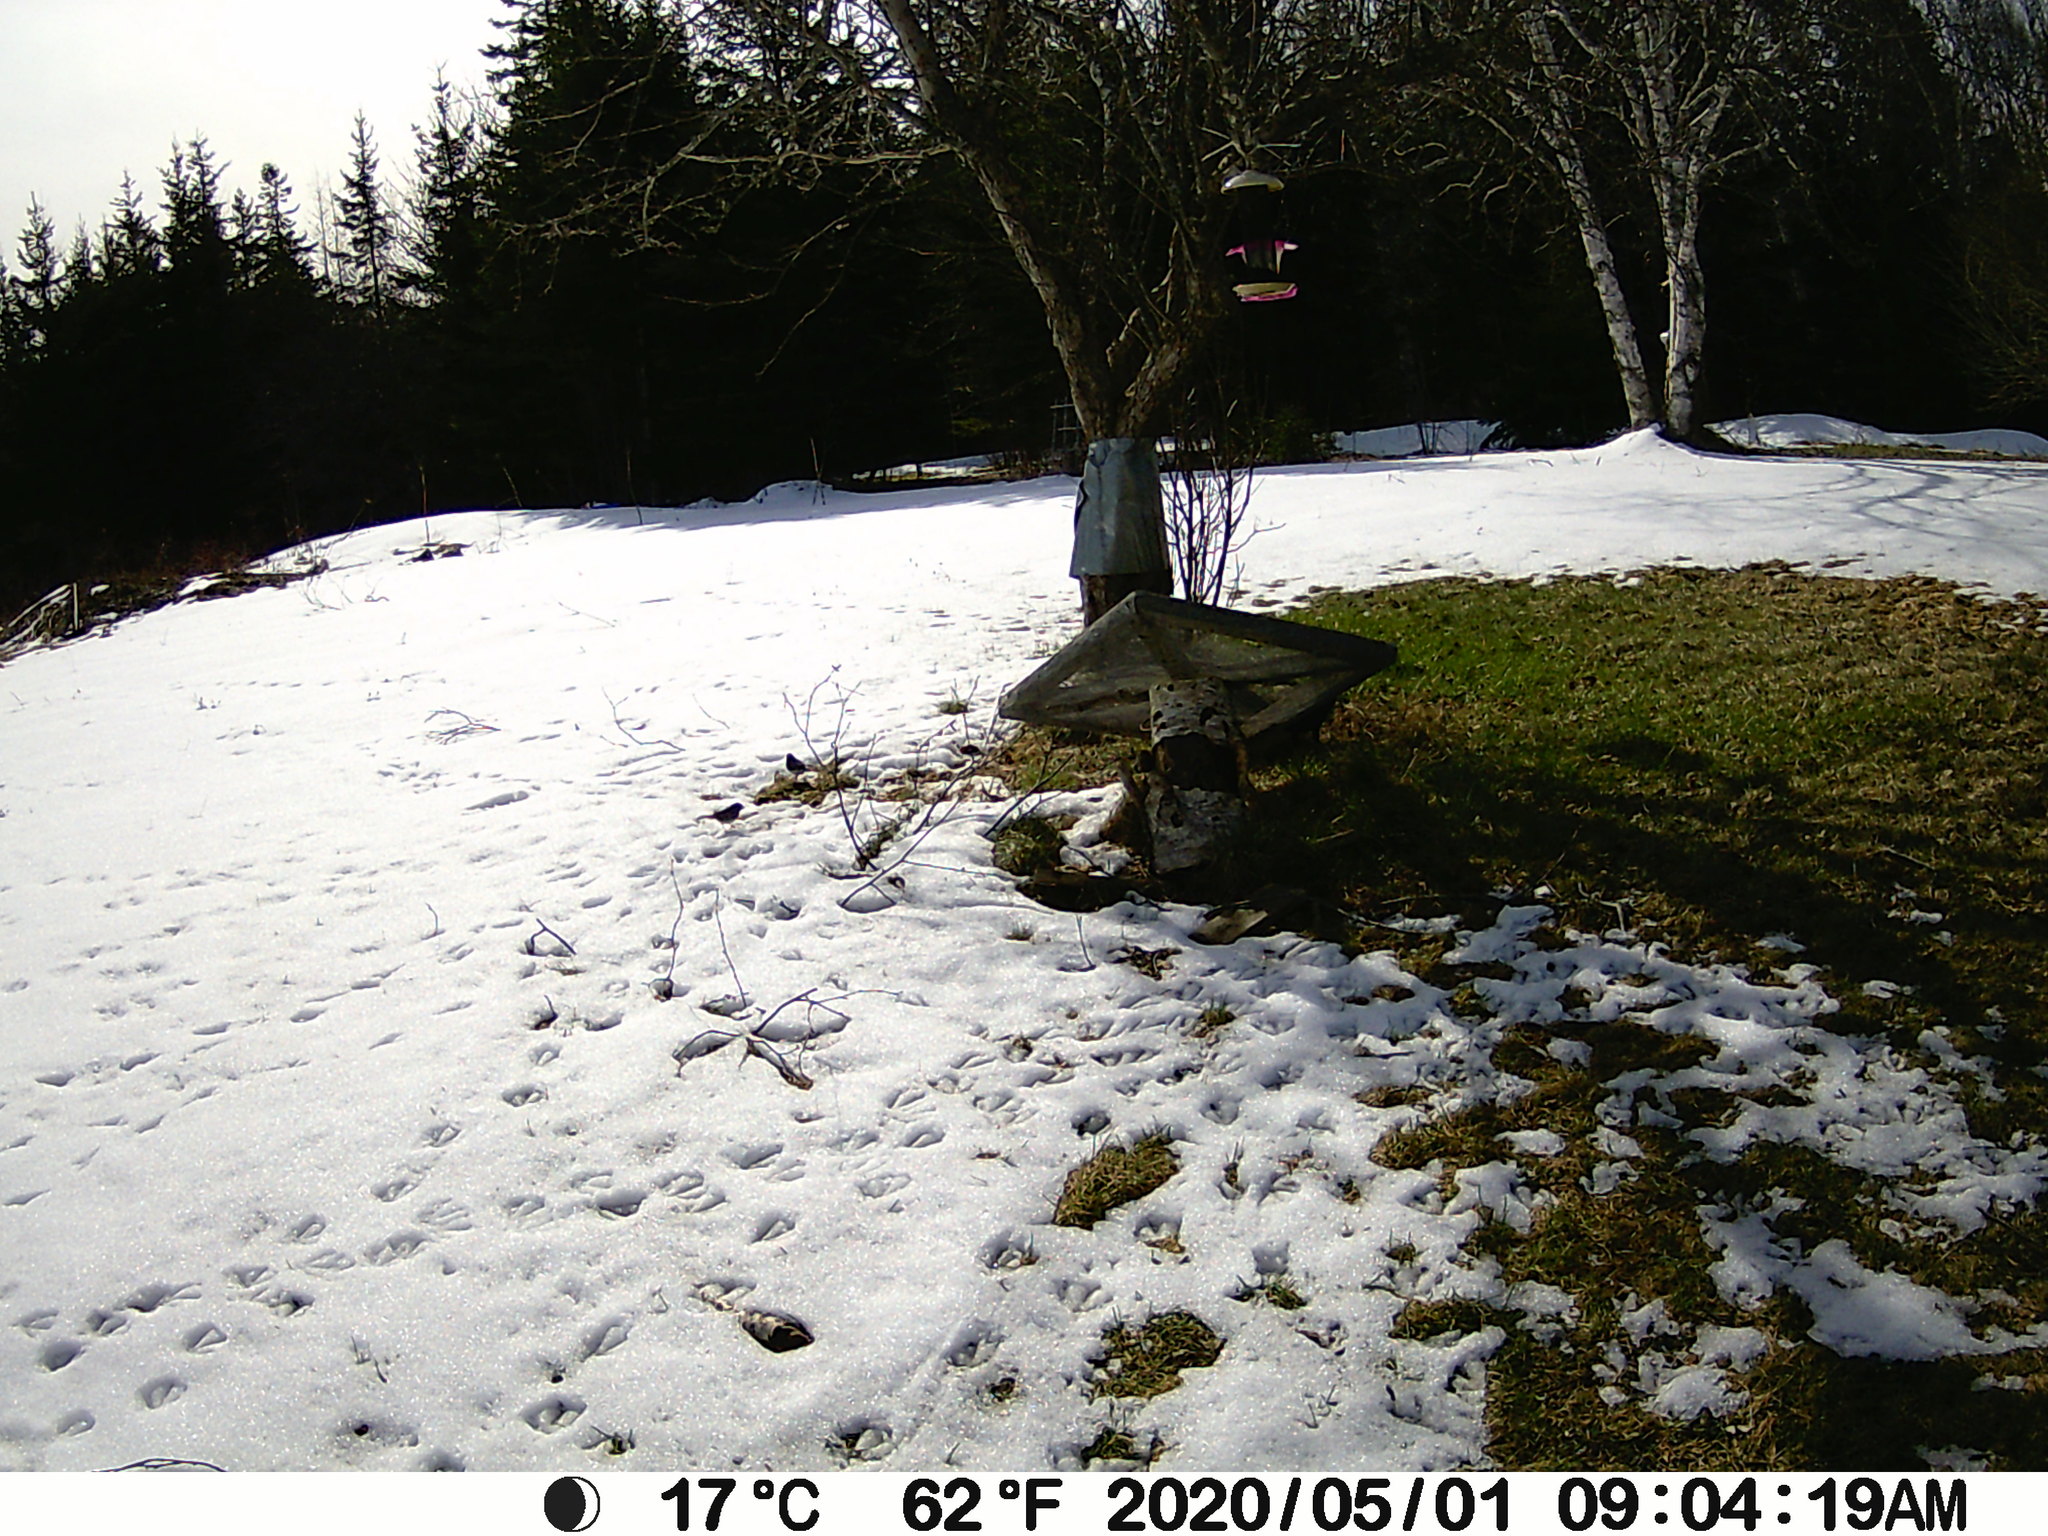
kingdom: Animalia
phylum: Chordata
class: Aves
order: Passeriformes
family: Passerellidae
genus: Junco
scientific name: Junco hyemalis
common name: Dark-eyed junco
